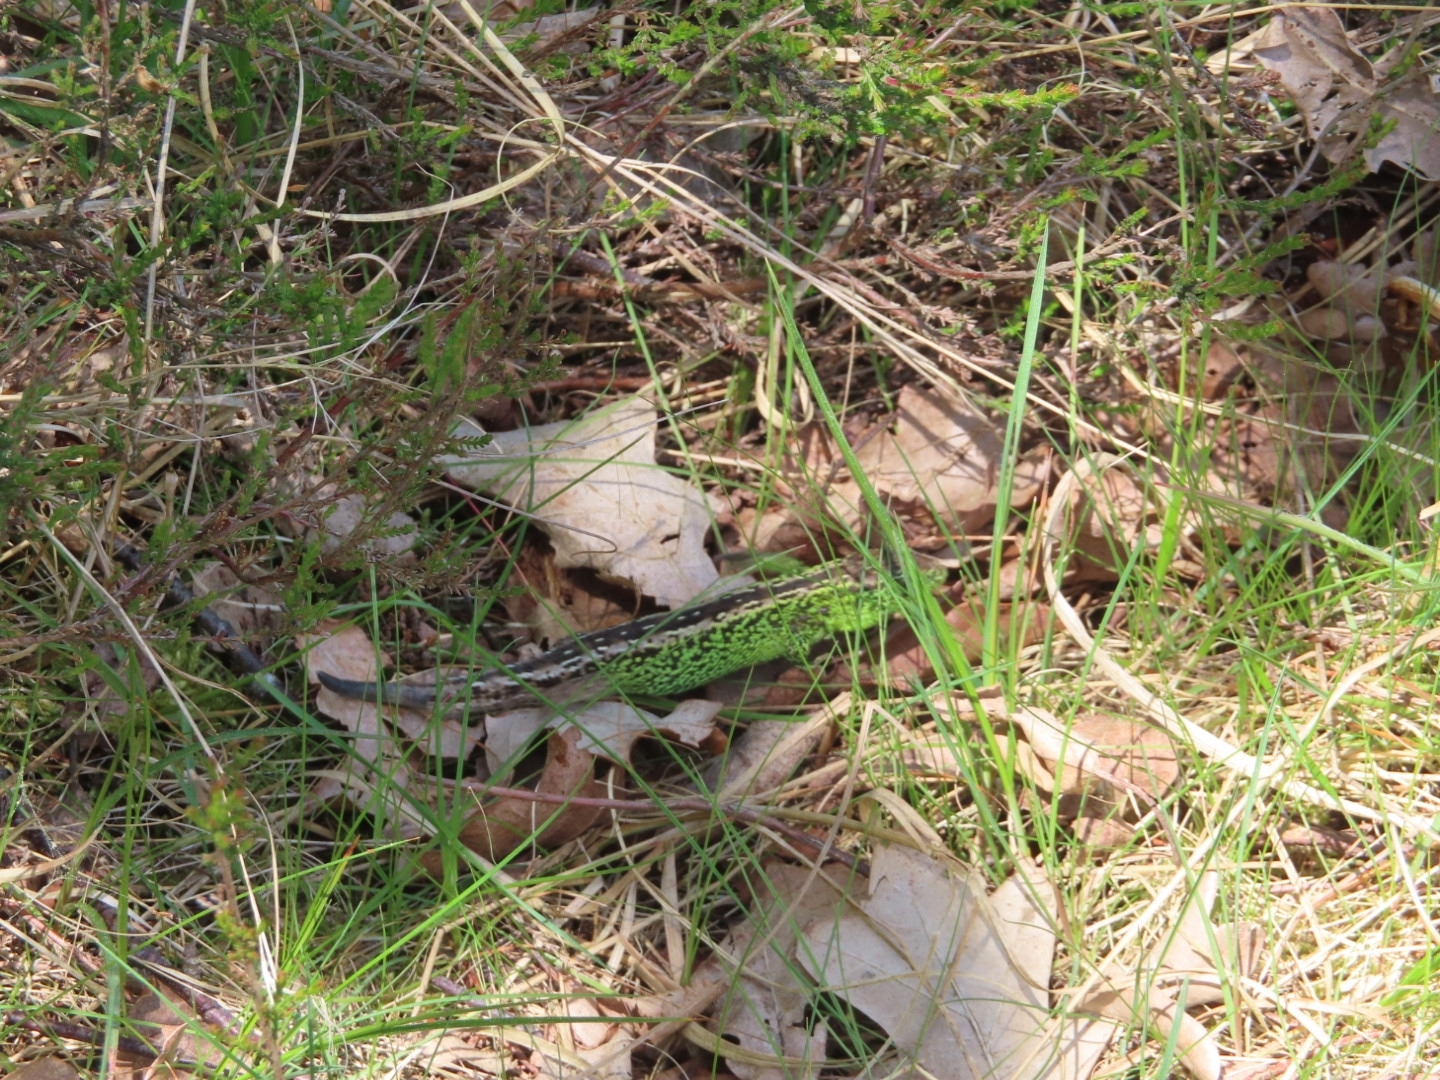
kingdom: Animalia
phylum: Chordata
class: Squamata
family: Lacertidae
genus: Lacerta
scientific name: Lacerta agilis
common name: Sand lizard
